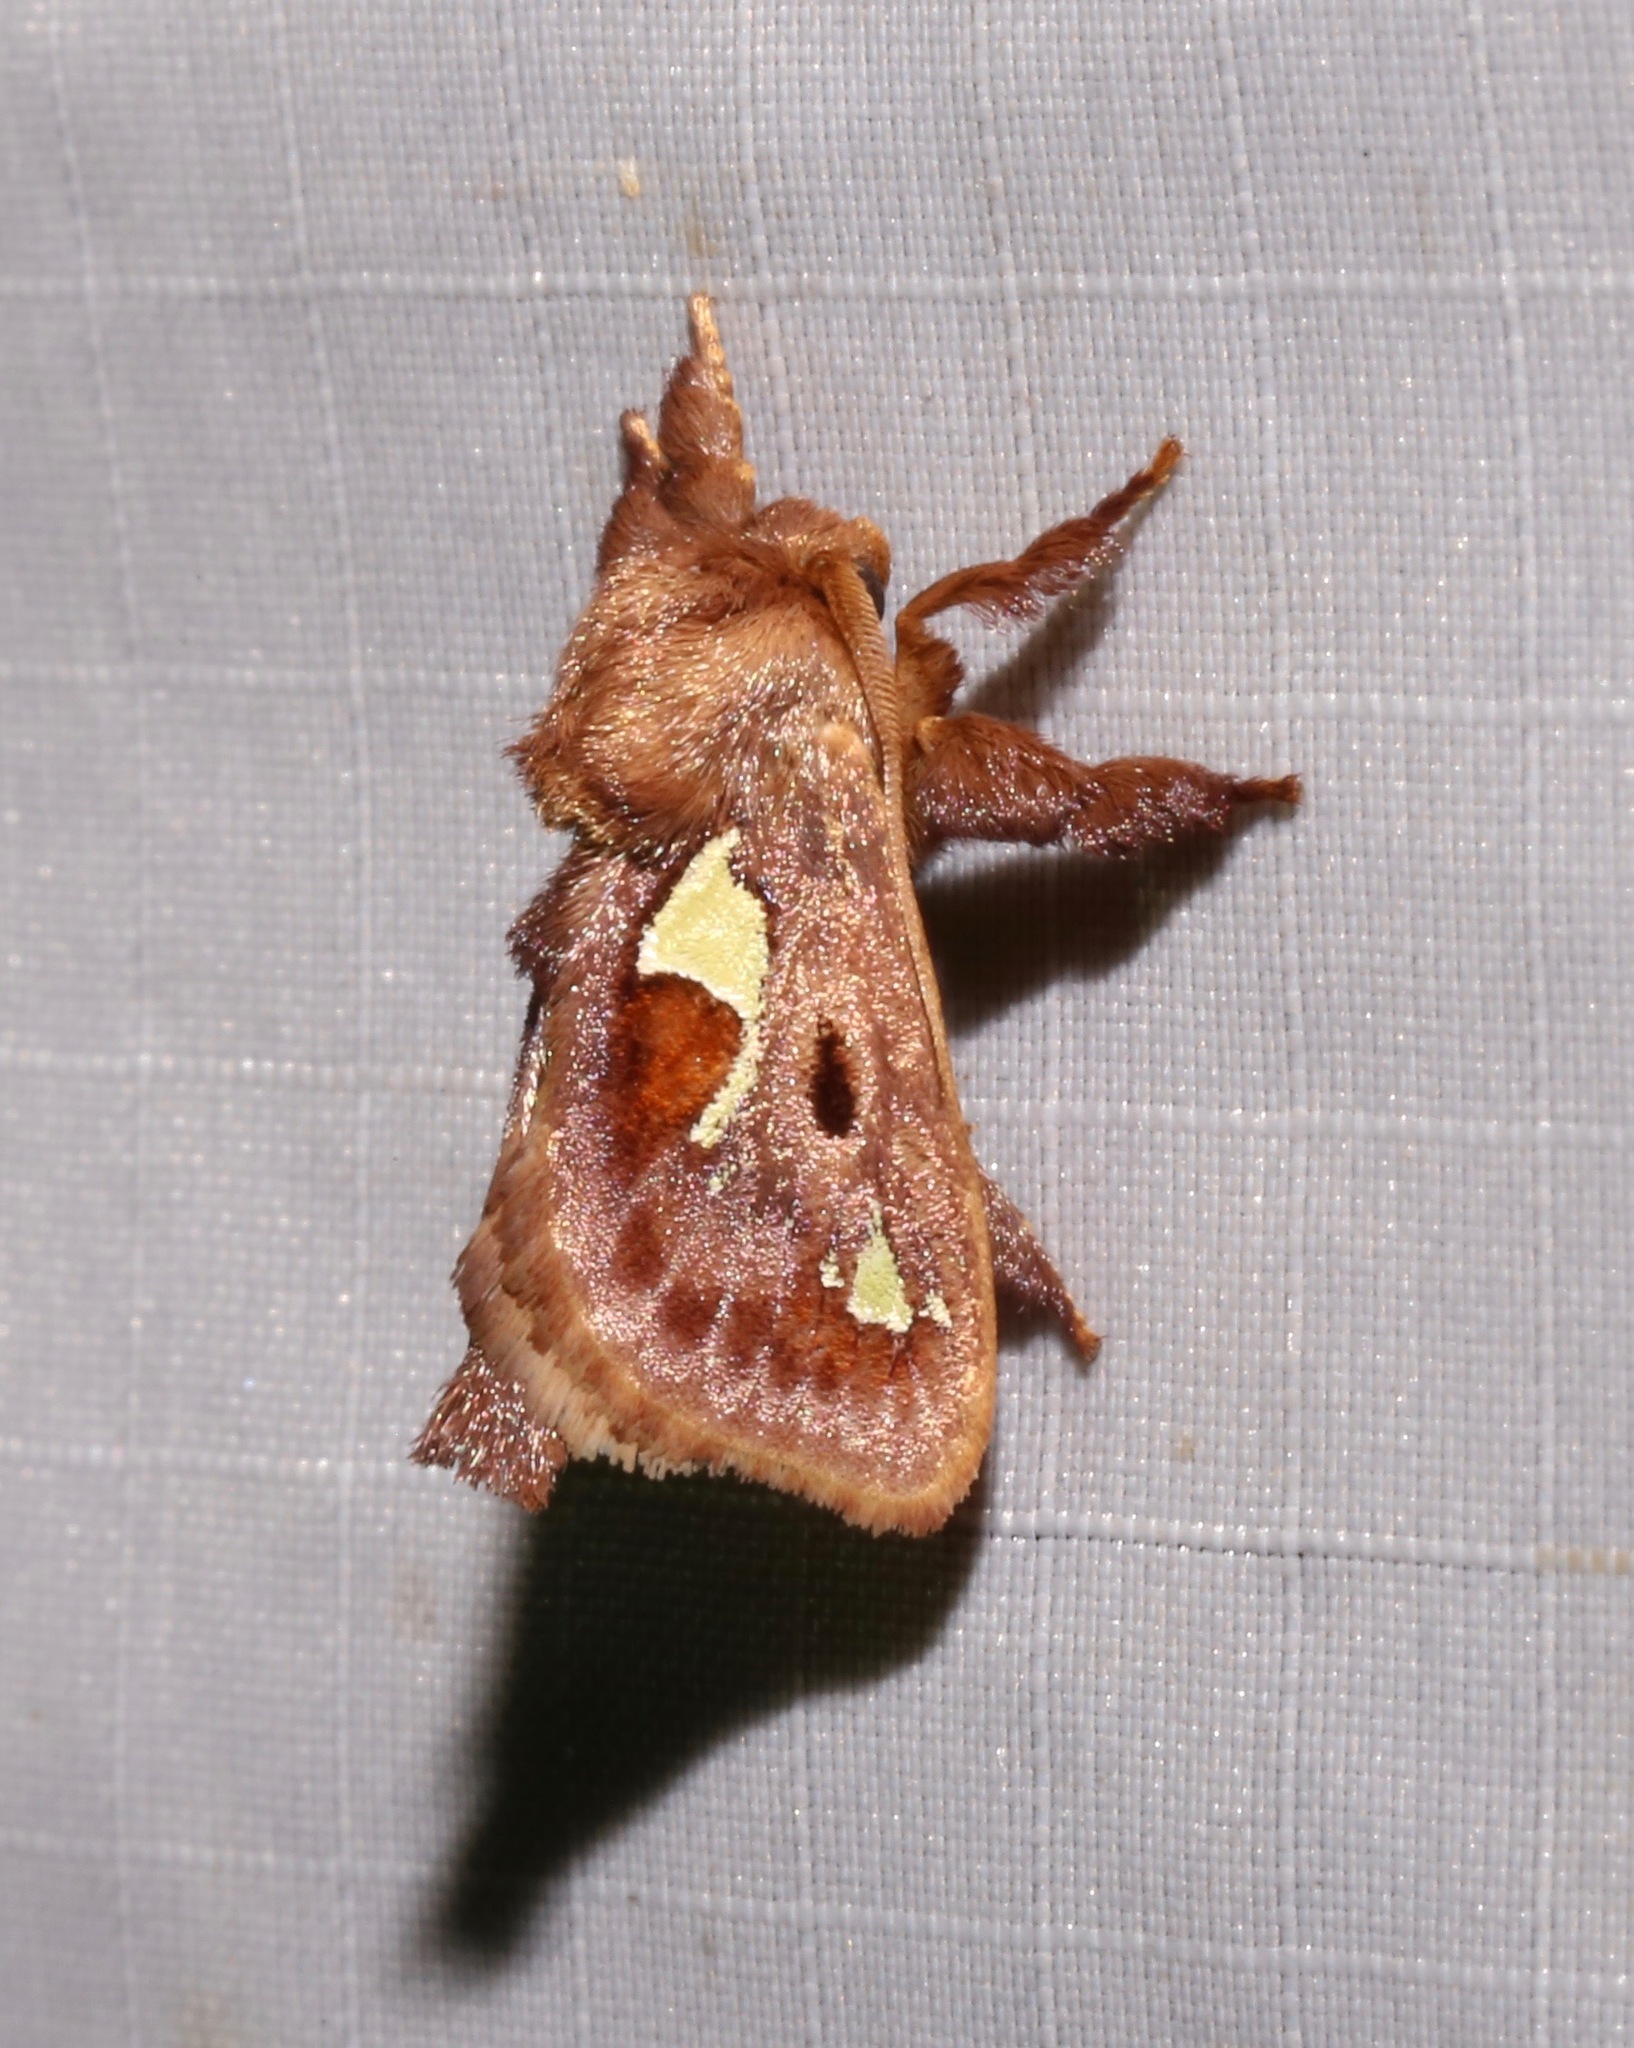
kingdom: Animalia
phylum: Arthropoda
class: Insecta
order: Lepidoptera
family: Limacodidae
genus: Euclea
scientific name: Euclea delphinii
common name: Spiny oak-slug moth
